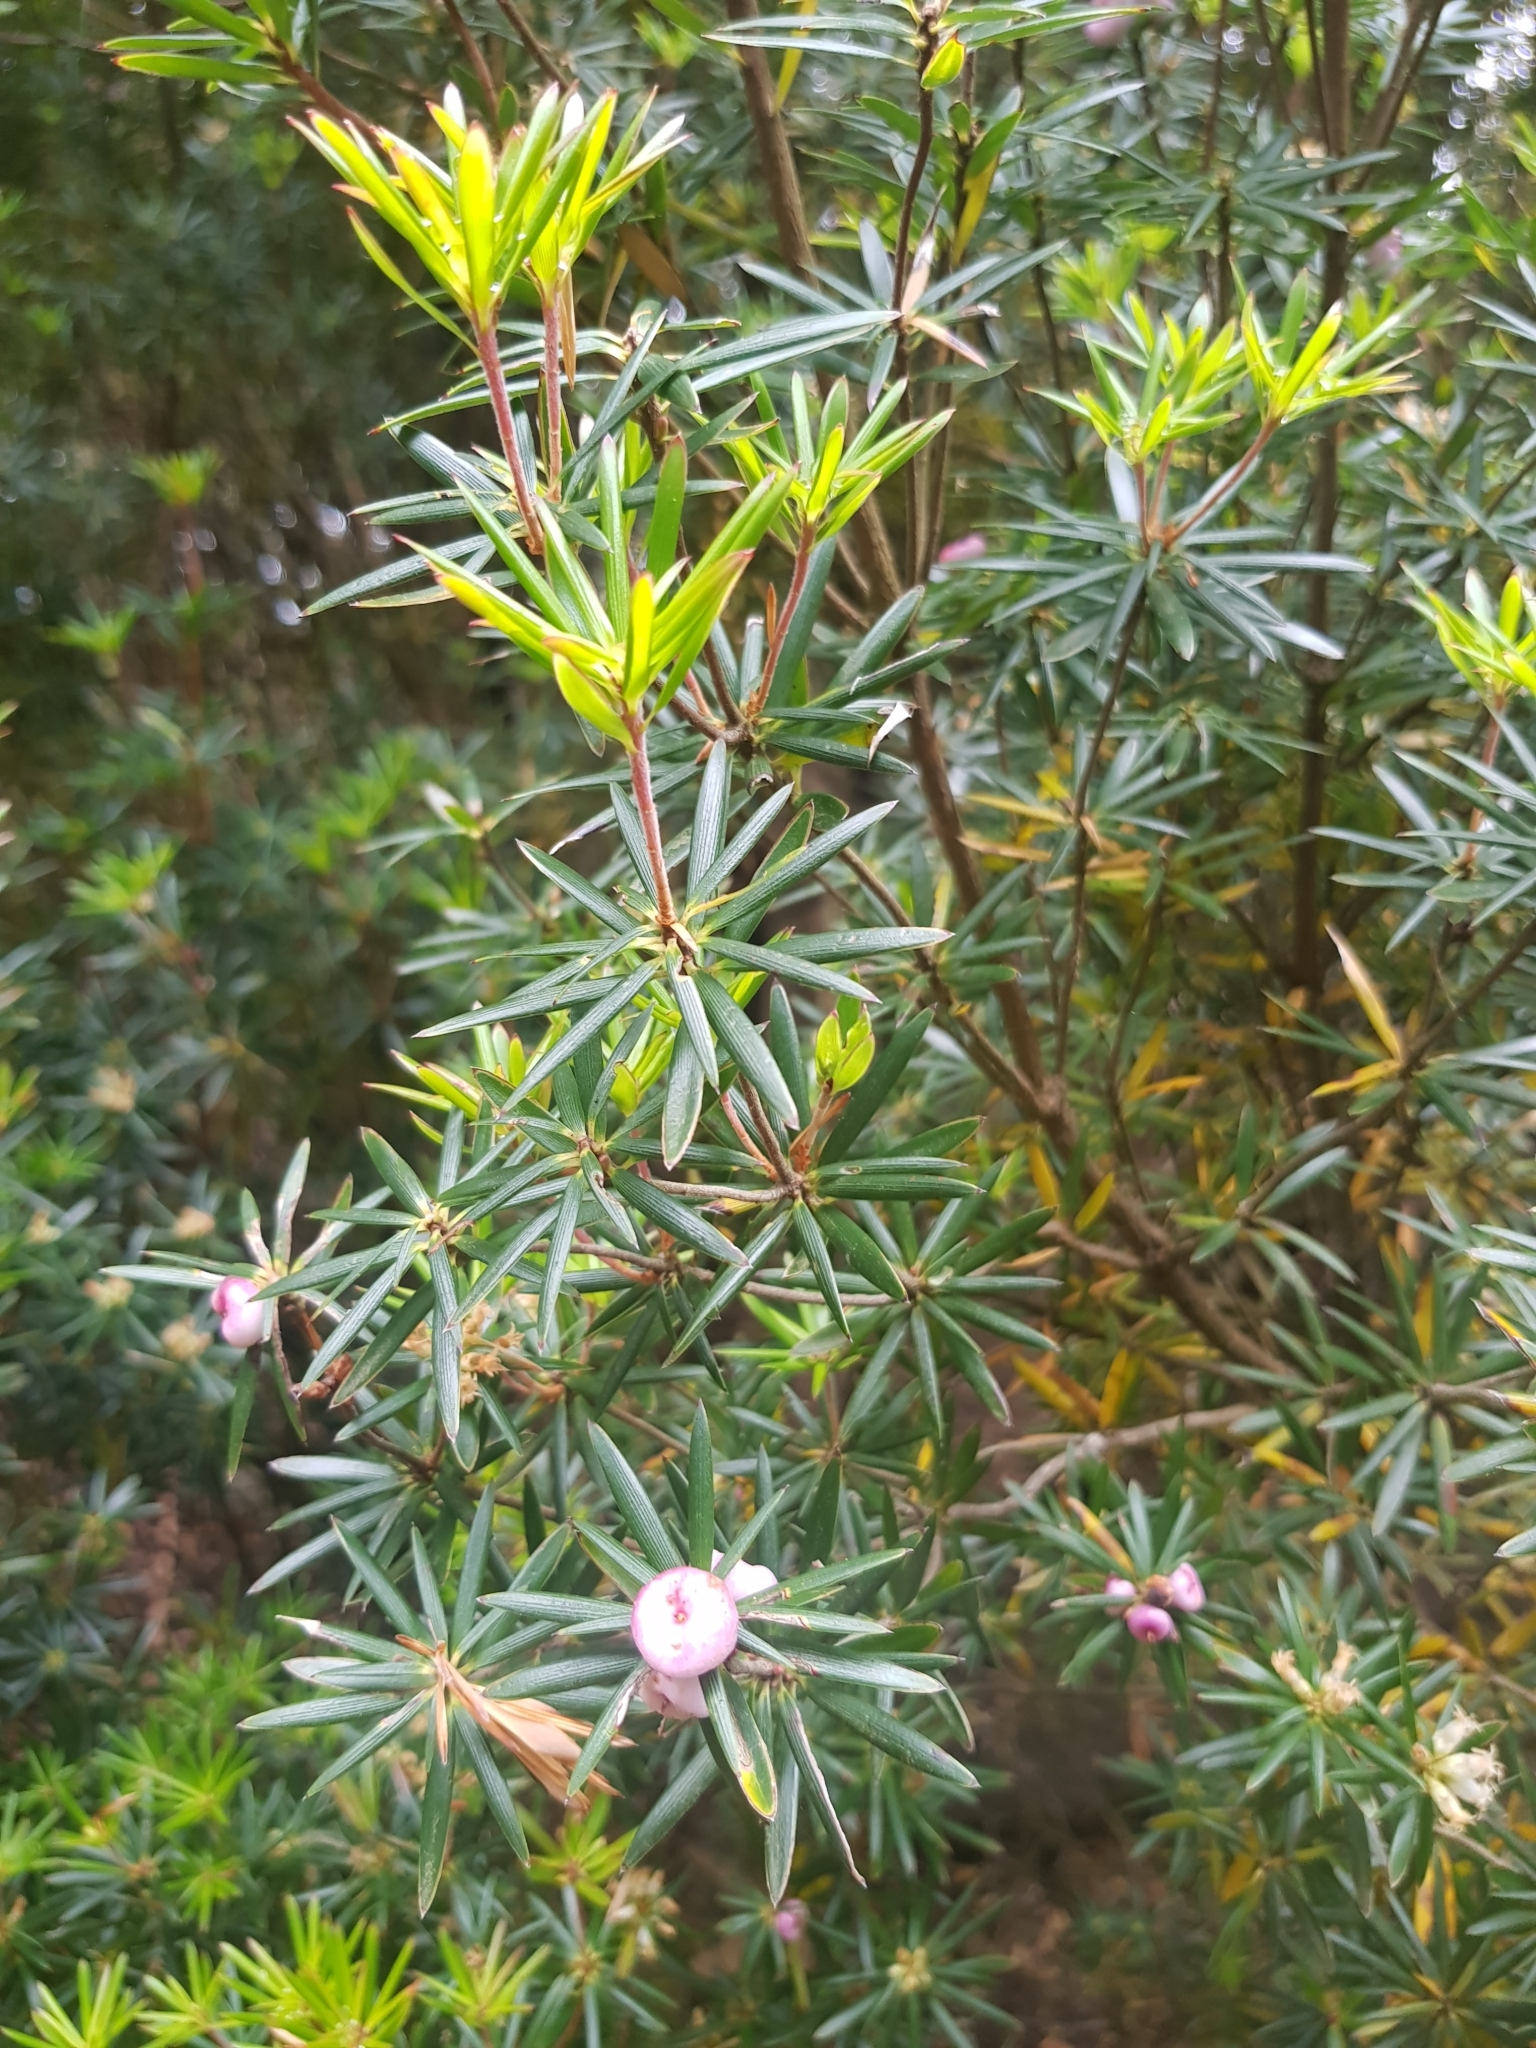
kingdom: Plantae
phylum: Tracheophyta
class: Magnoliopsida
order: Ericales
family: Ericaceae
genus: Cyathodes
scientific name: Cyathodes glauca
